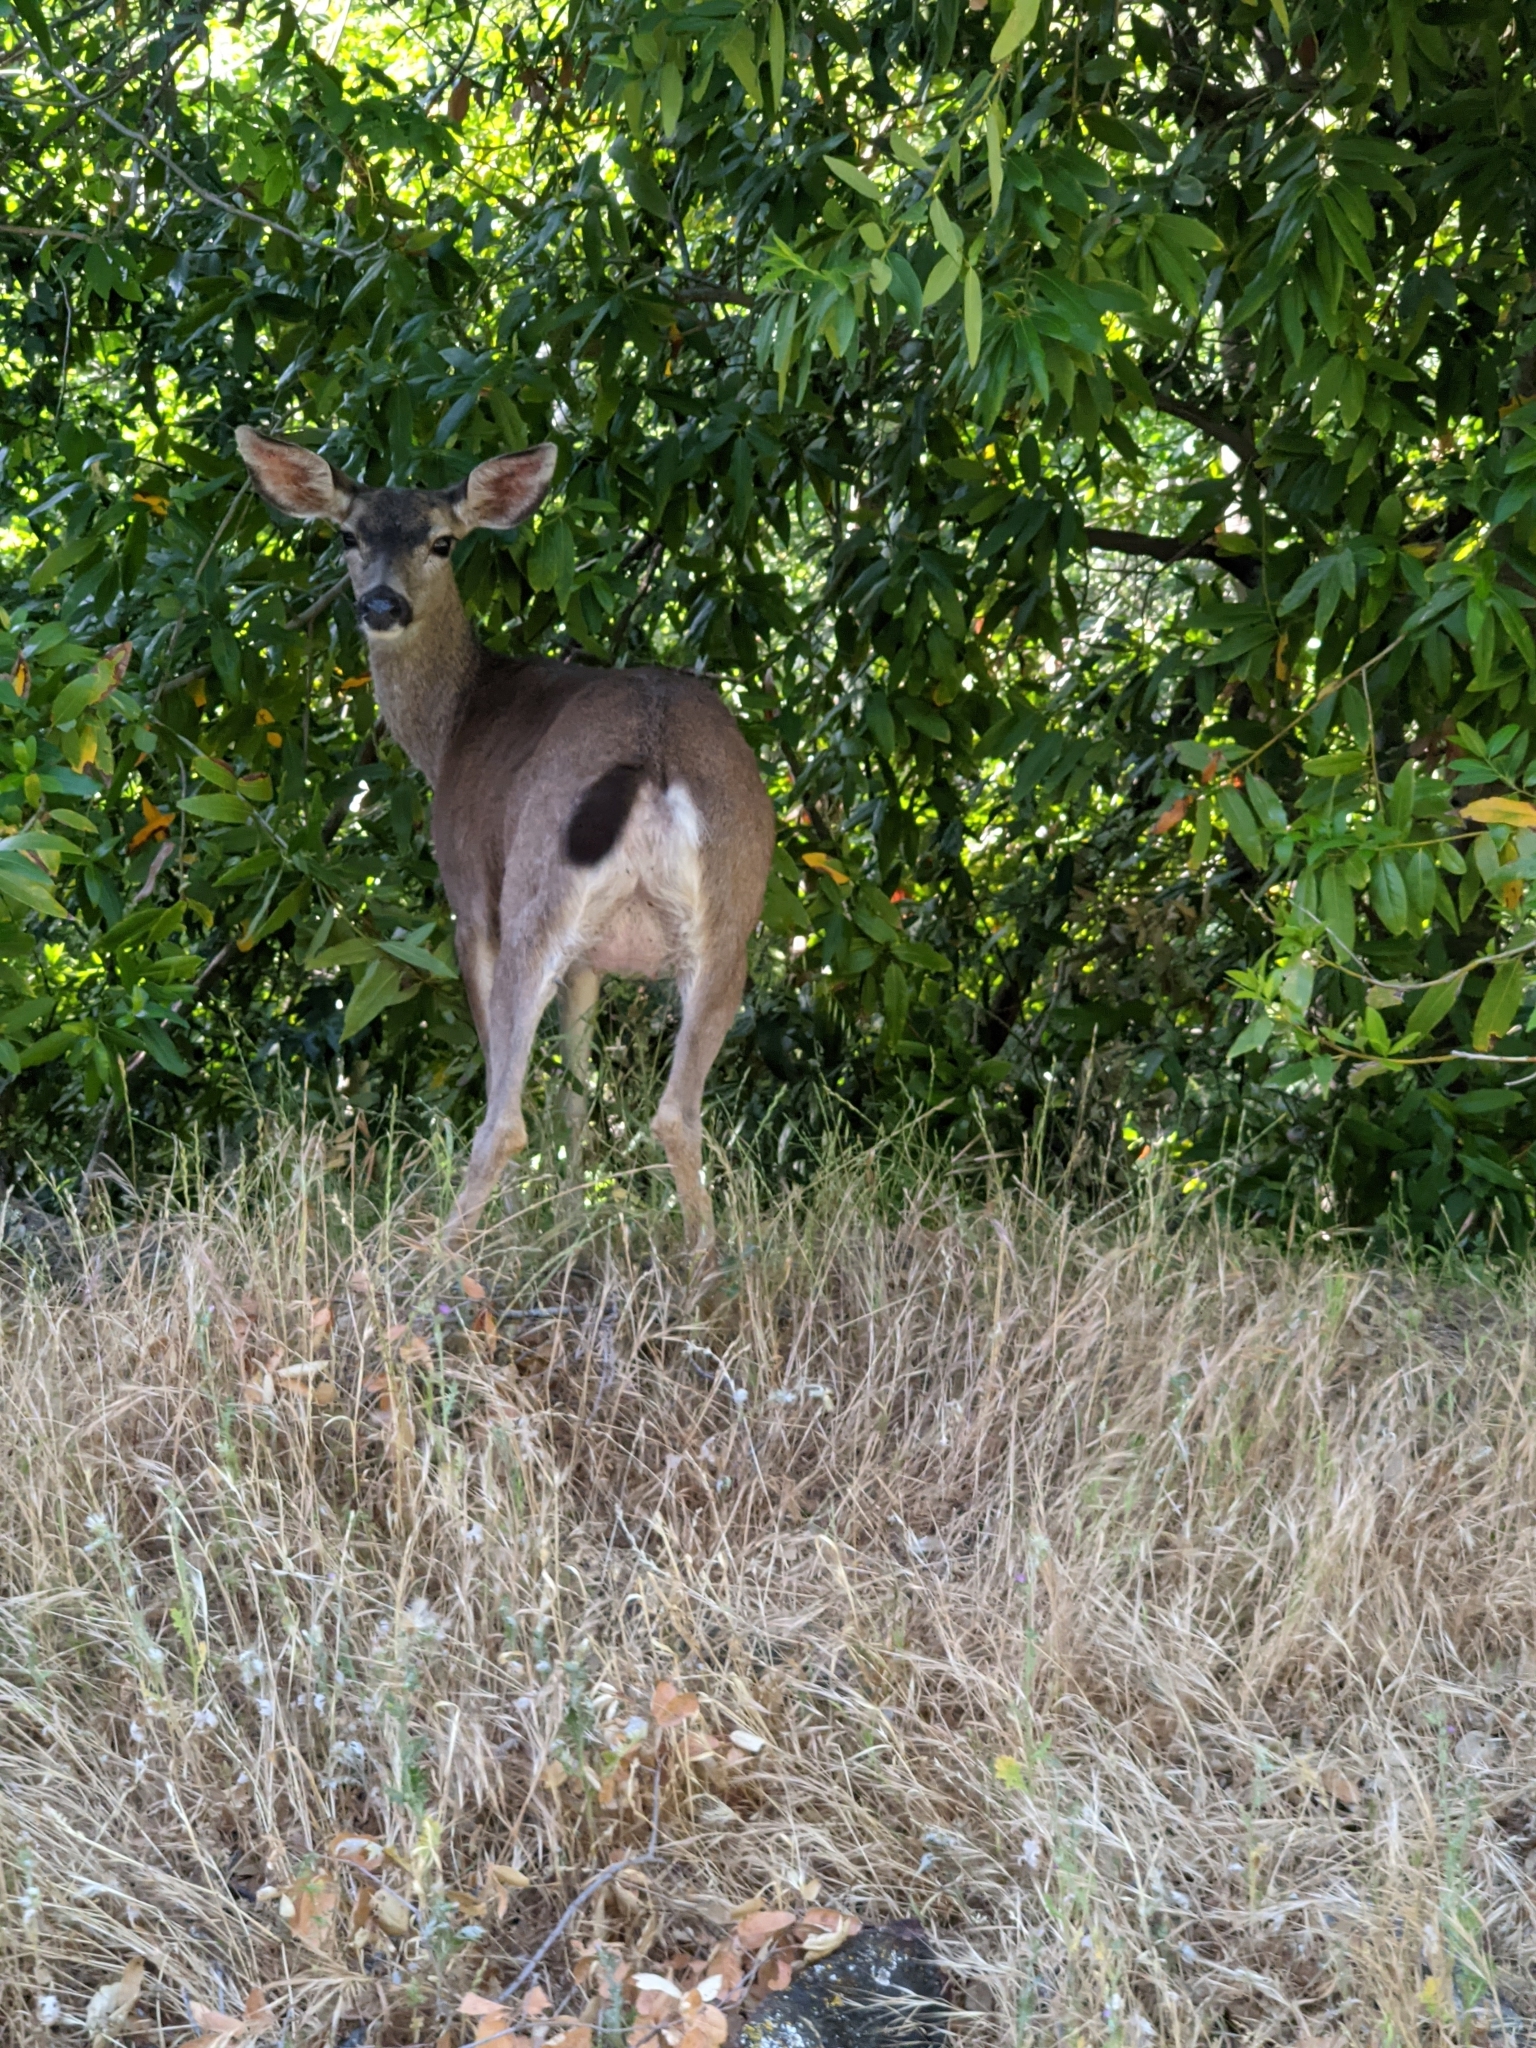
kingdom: Animalia
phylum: Chordata
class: Mammalia
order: Artiodactyla
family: Cervidae
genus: Odocoileus
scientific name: Odocoileus hemionus
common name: Mule deer
